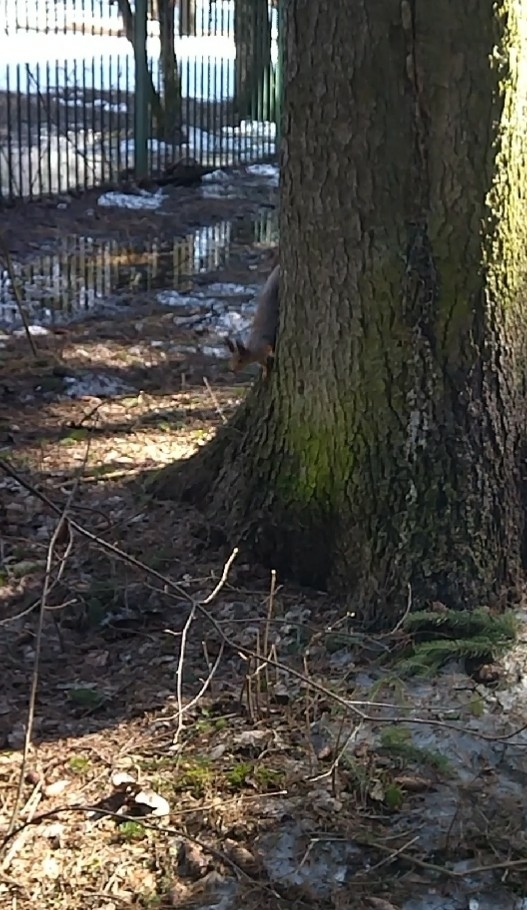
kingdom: Animalia
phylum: Chordata
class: Mammalia
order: Rodentia
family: Sciuridae
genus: Sciurus
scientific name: Sciurus vulgaris
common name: Eurasian red squirrel
